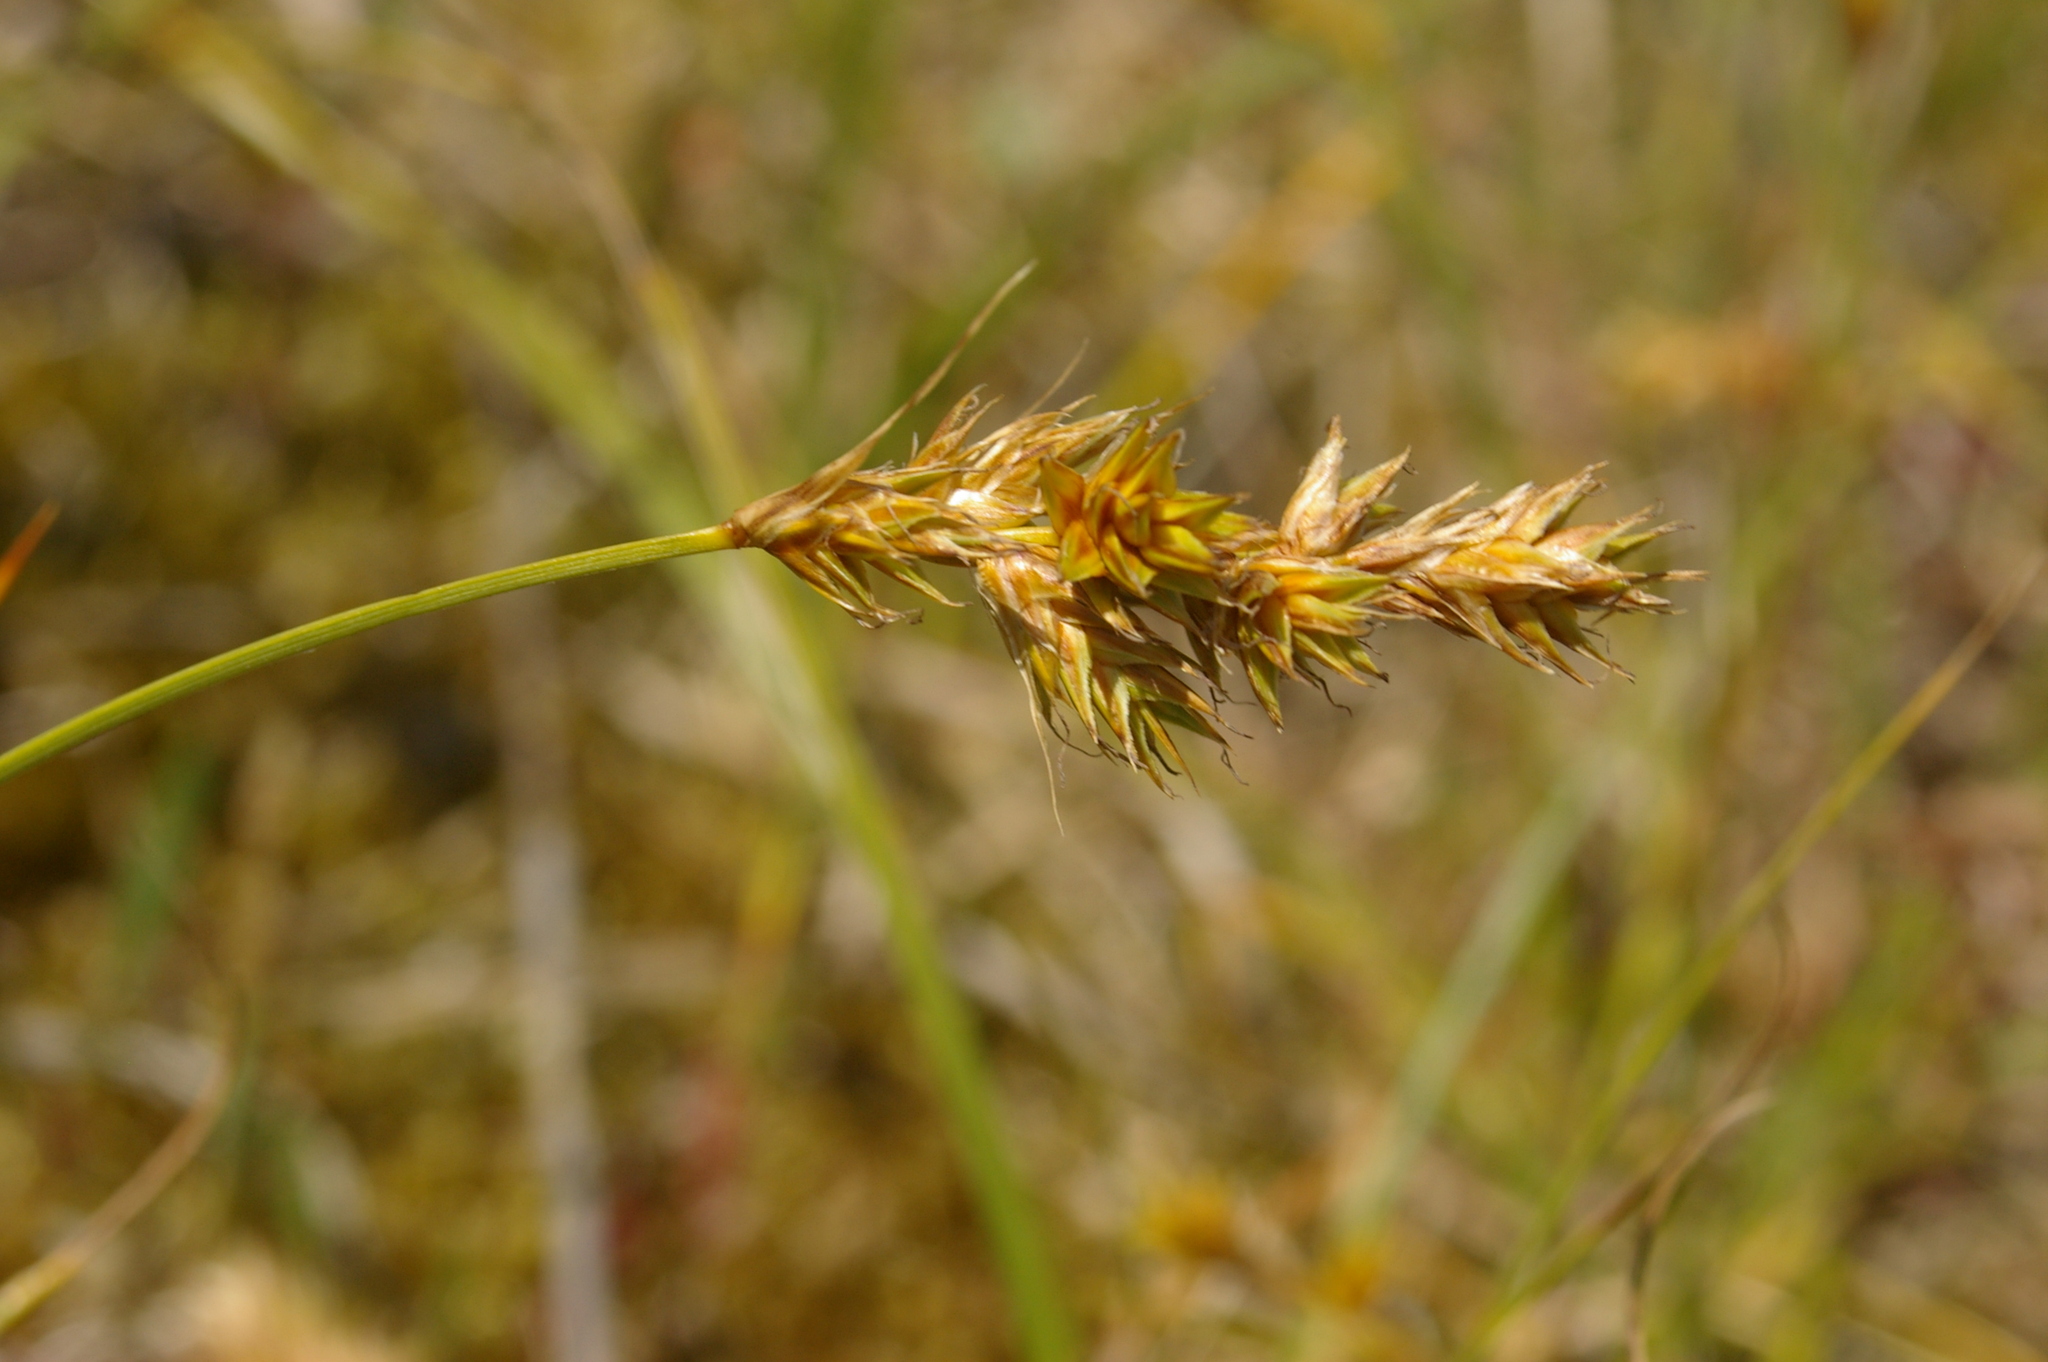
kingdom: Plantae
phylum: Tracheophyta
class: Liliopsida
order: Poales
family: Cyperaceae
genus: Carex
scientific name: Carex arenaria
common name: Sand sedge
